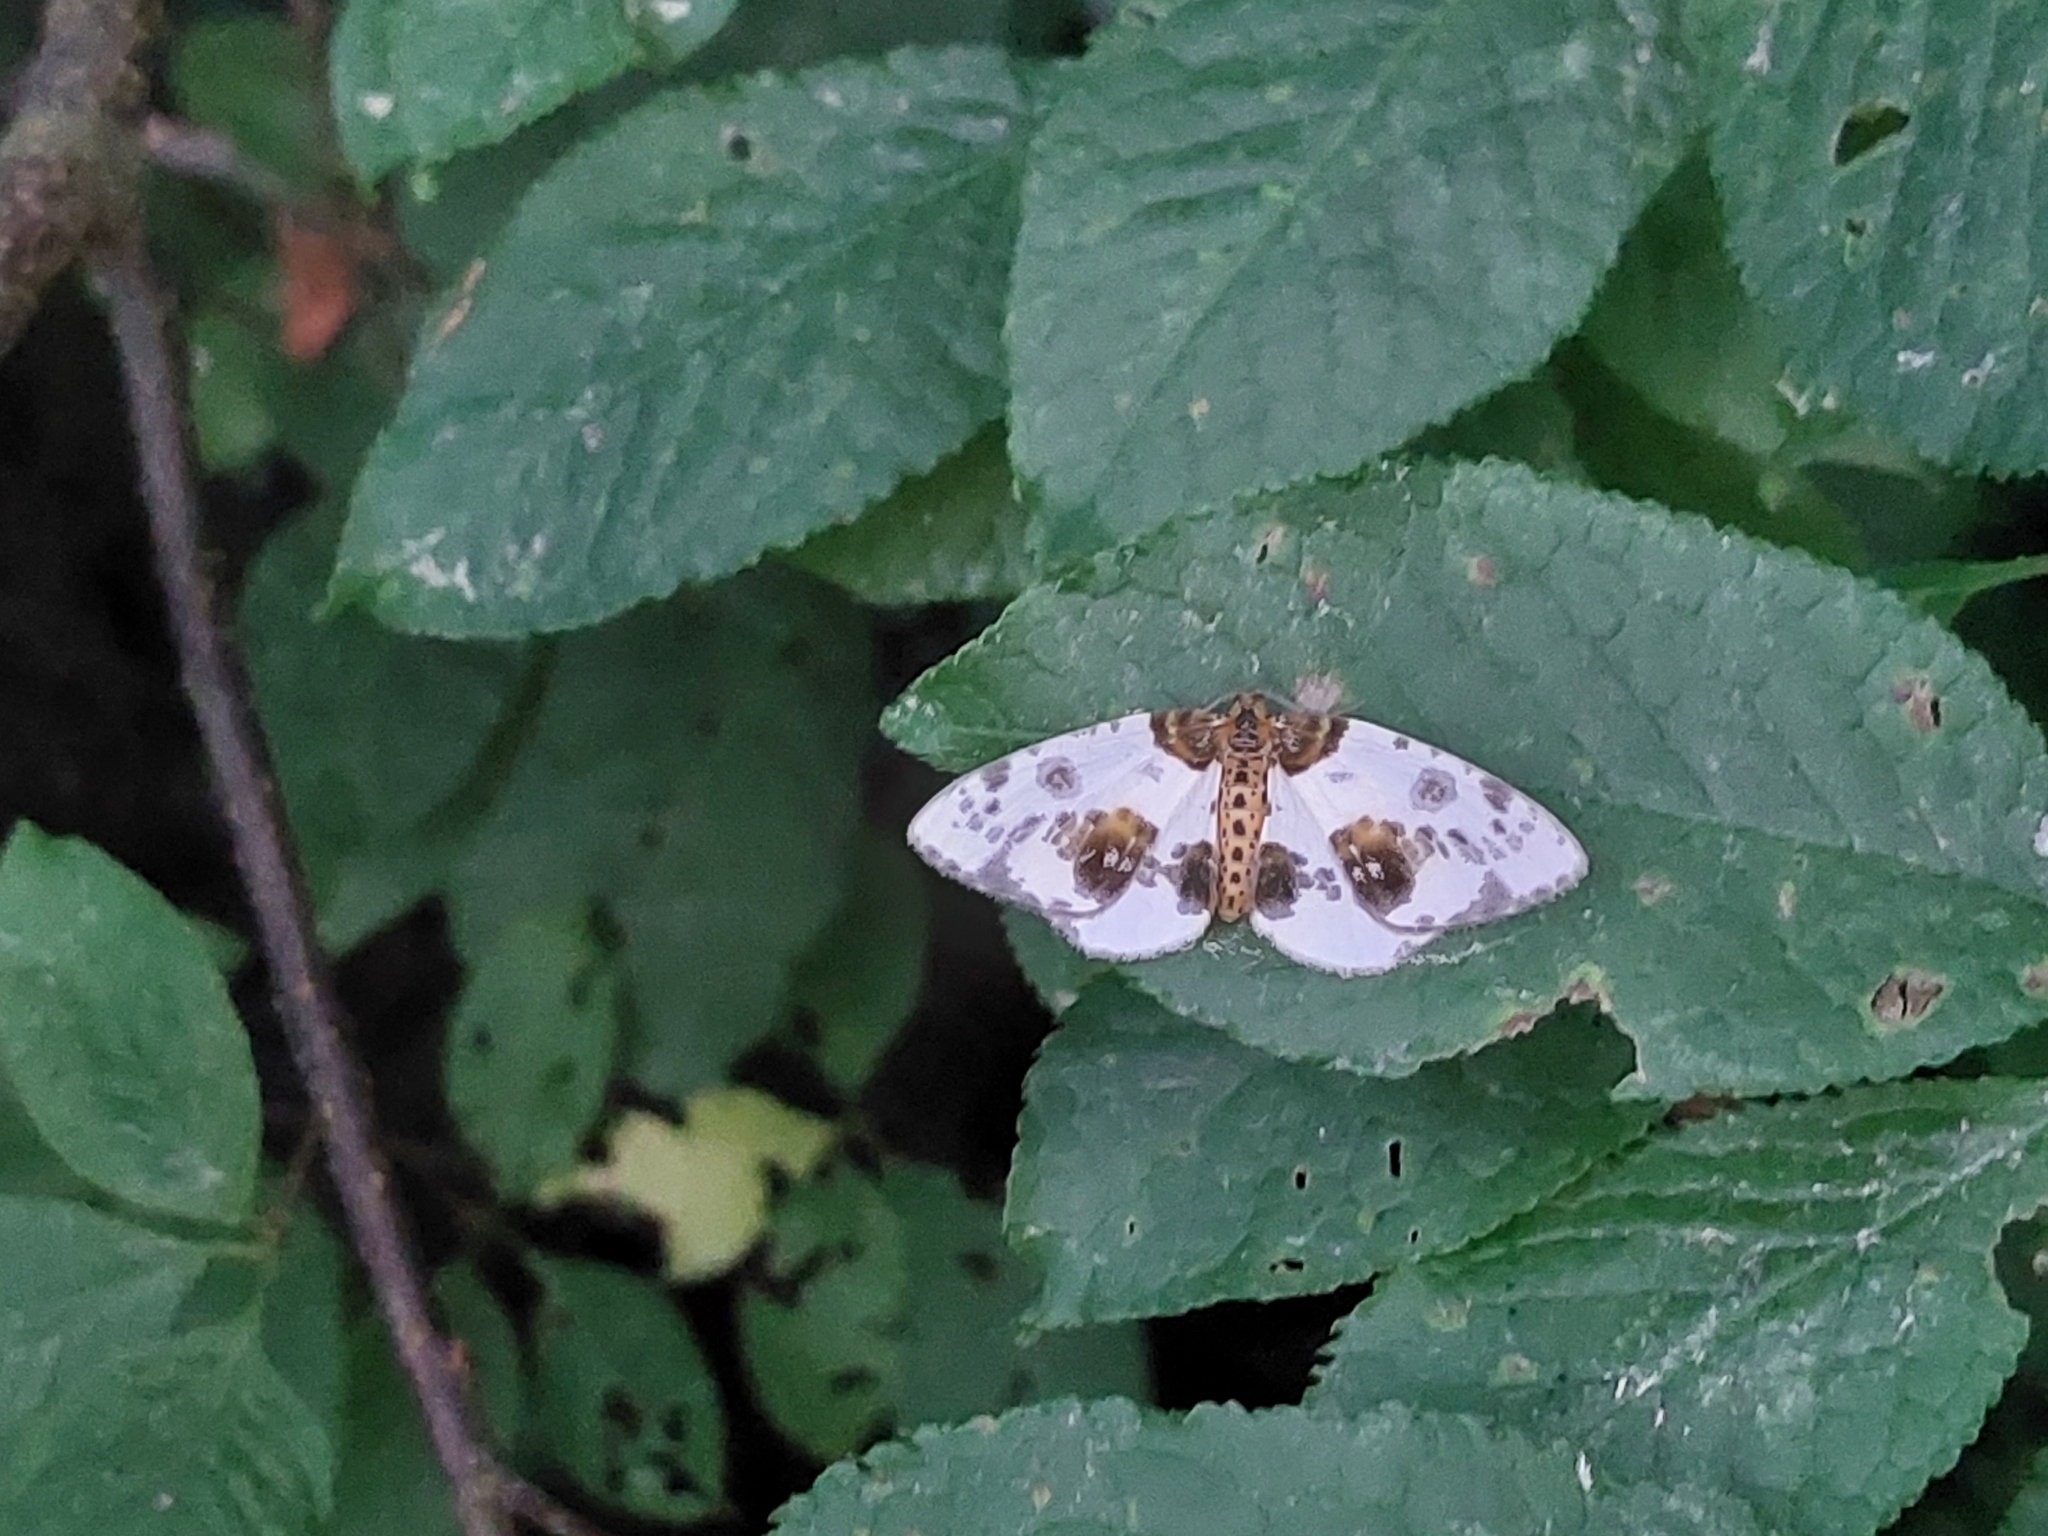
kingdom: Animalia
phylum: Arthropoda
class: Insecta
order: Lepidoptera
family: Geometridae
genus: Abraxas
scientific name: Abraxas sylvata
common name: Clouded magpie
